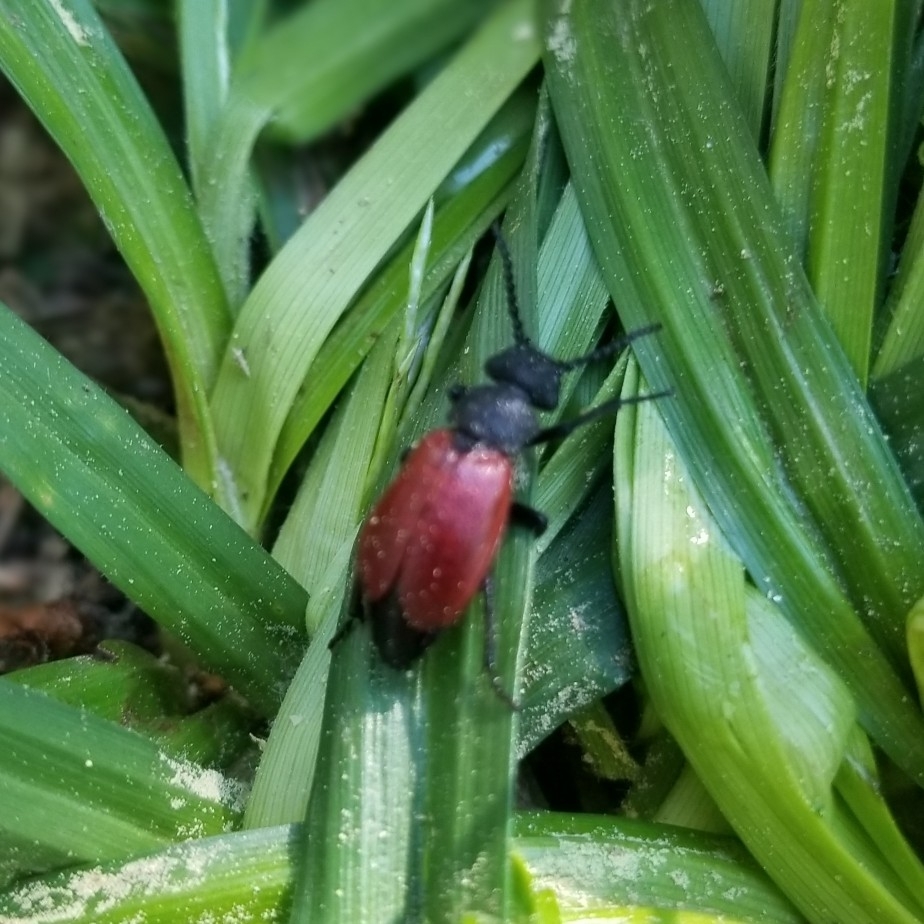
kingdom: Animalia
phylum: Arthropoda
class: Insecta
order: Coleoptera
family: Meloidae
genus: Tricrania
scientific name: Tricrania sanguinipennis
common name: Blood-winged blister beetle
